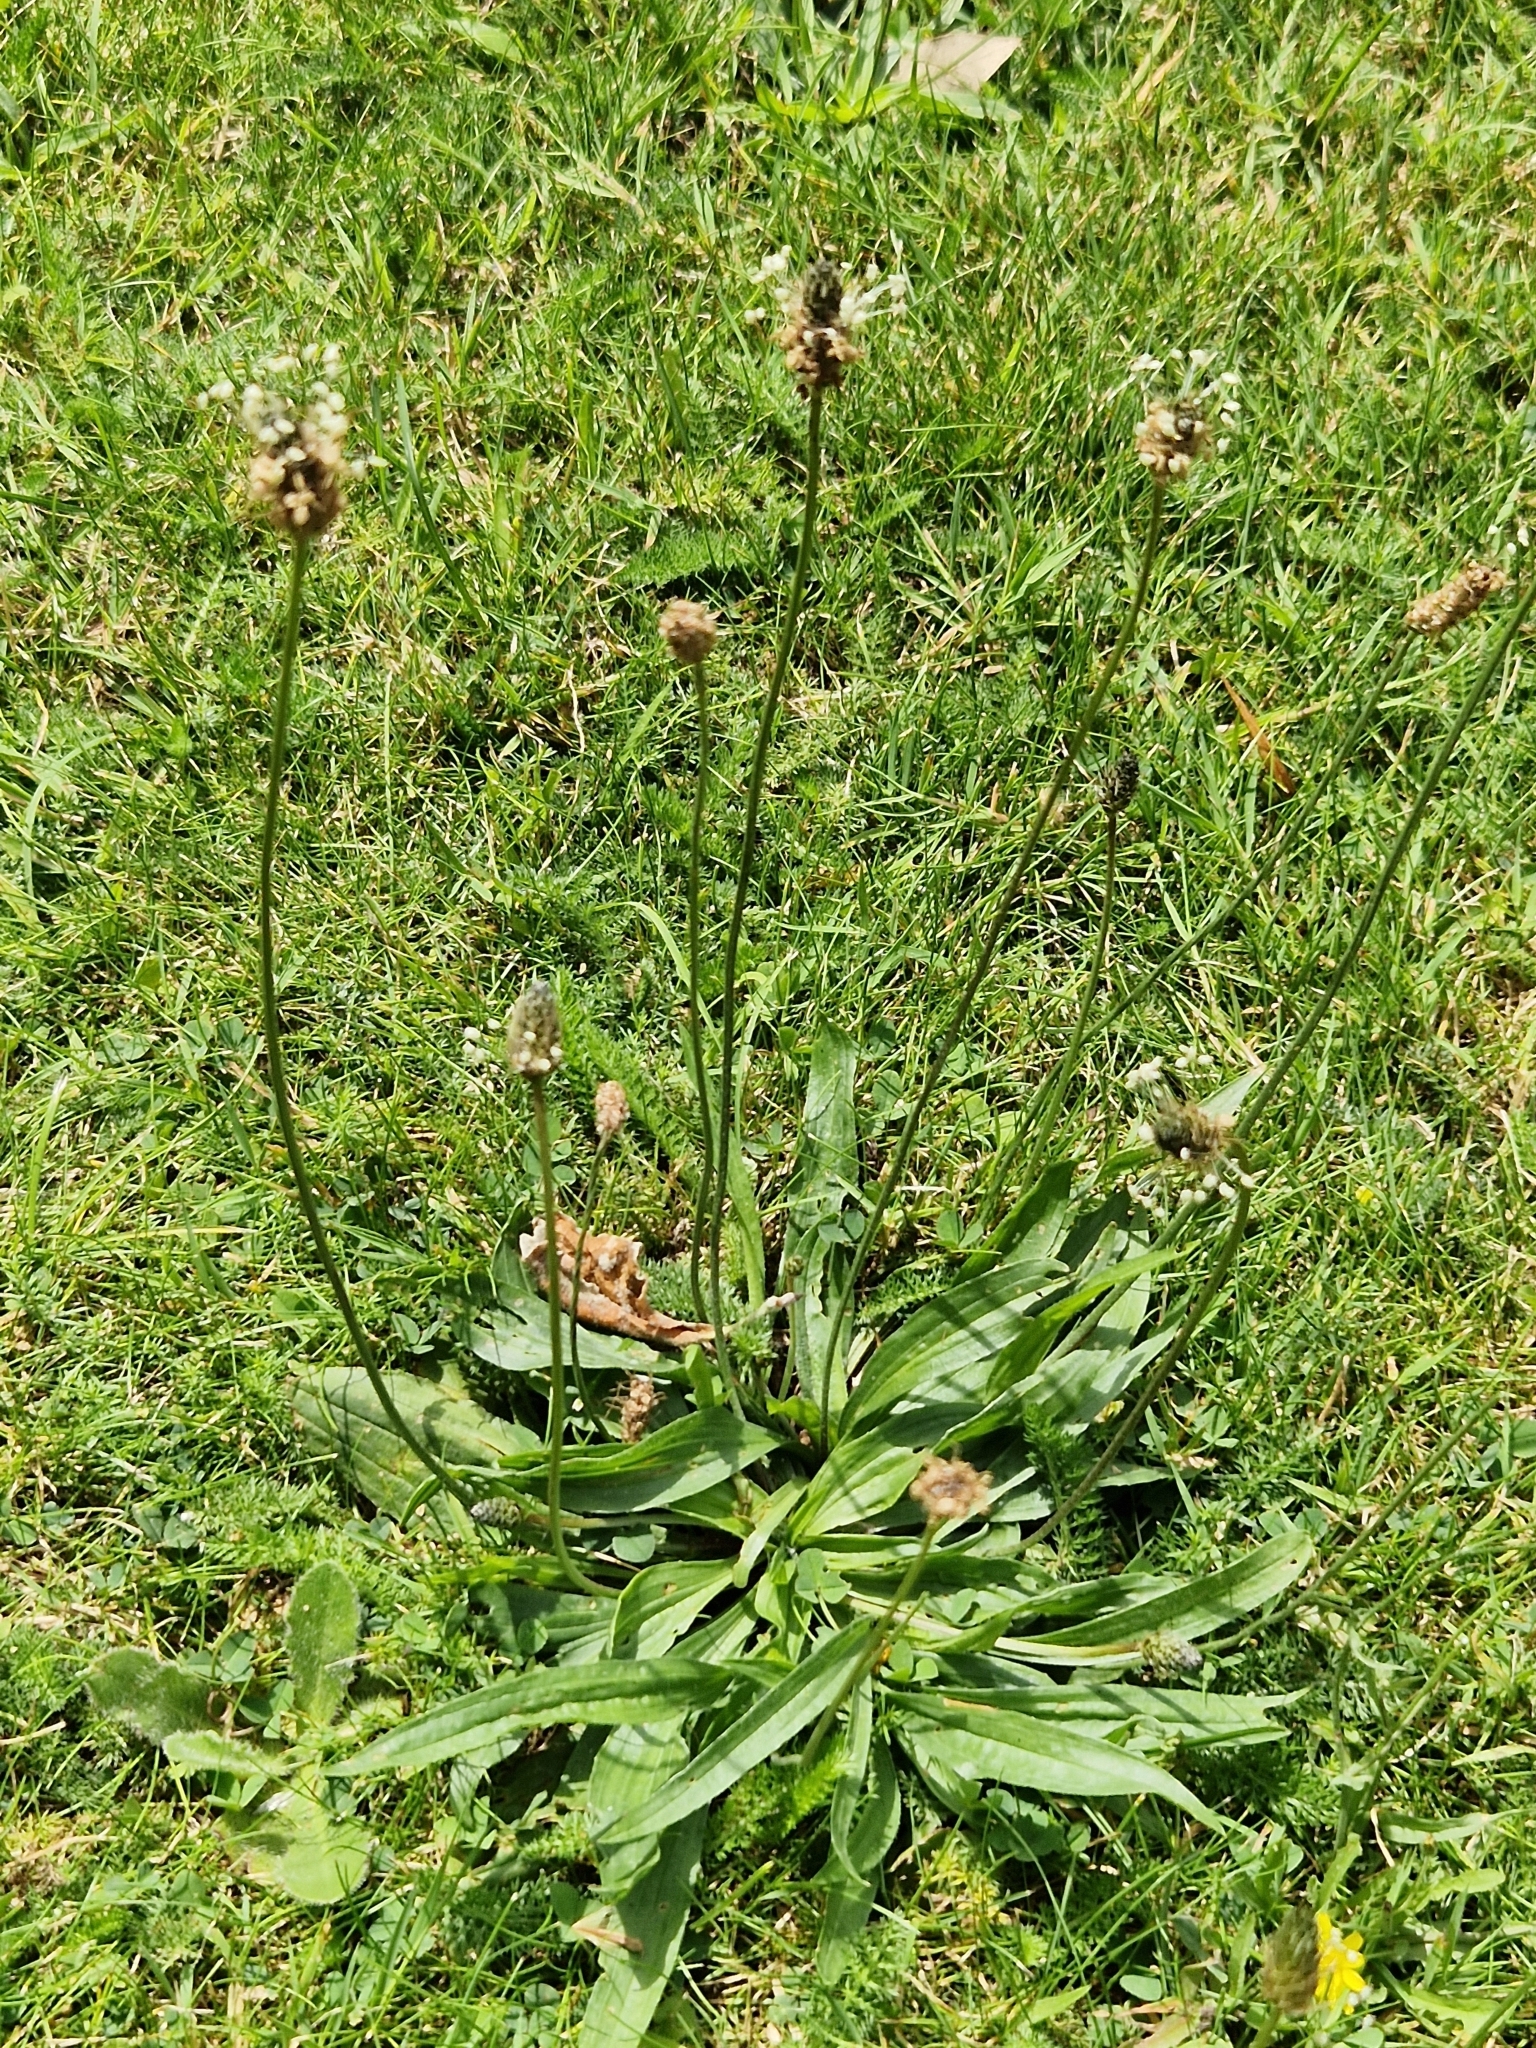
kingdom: Plantae
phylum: Tracheophyta
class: Magnoliopsida
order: Lamiales
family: Plantaginaceae
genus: Plantago
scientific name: Plantago lanceolata
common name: Ribwort plantain
